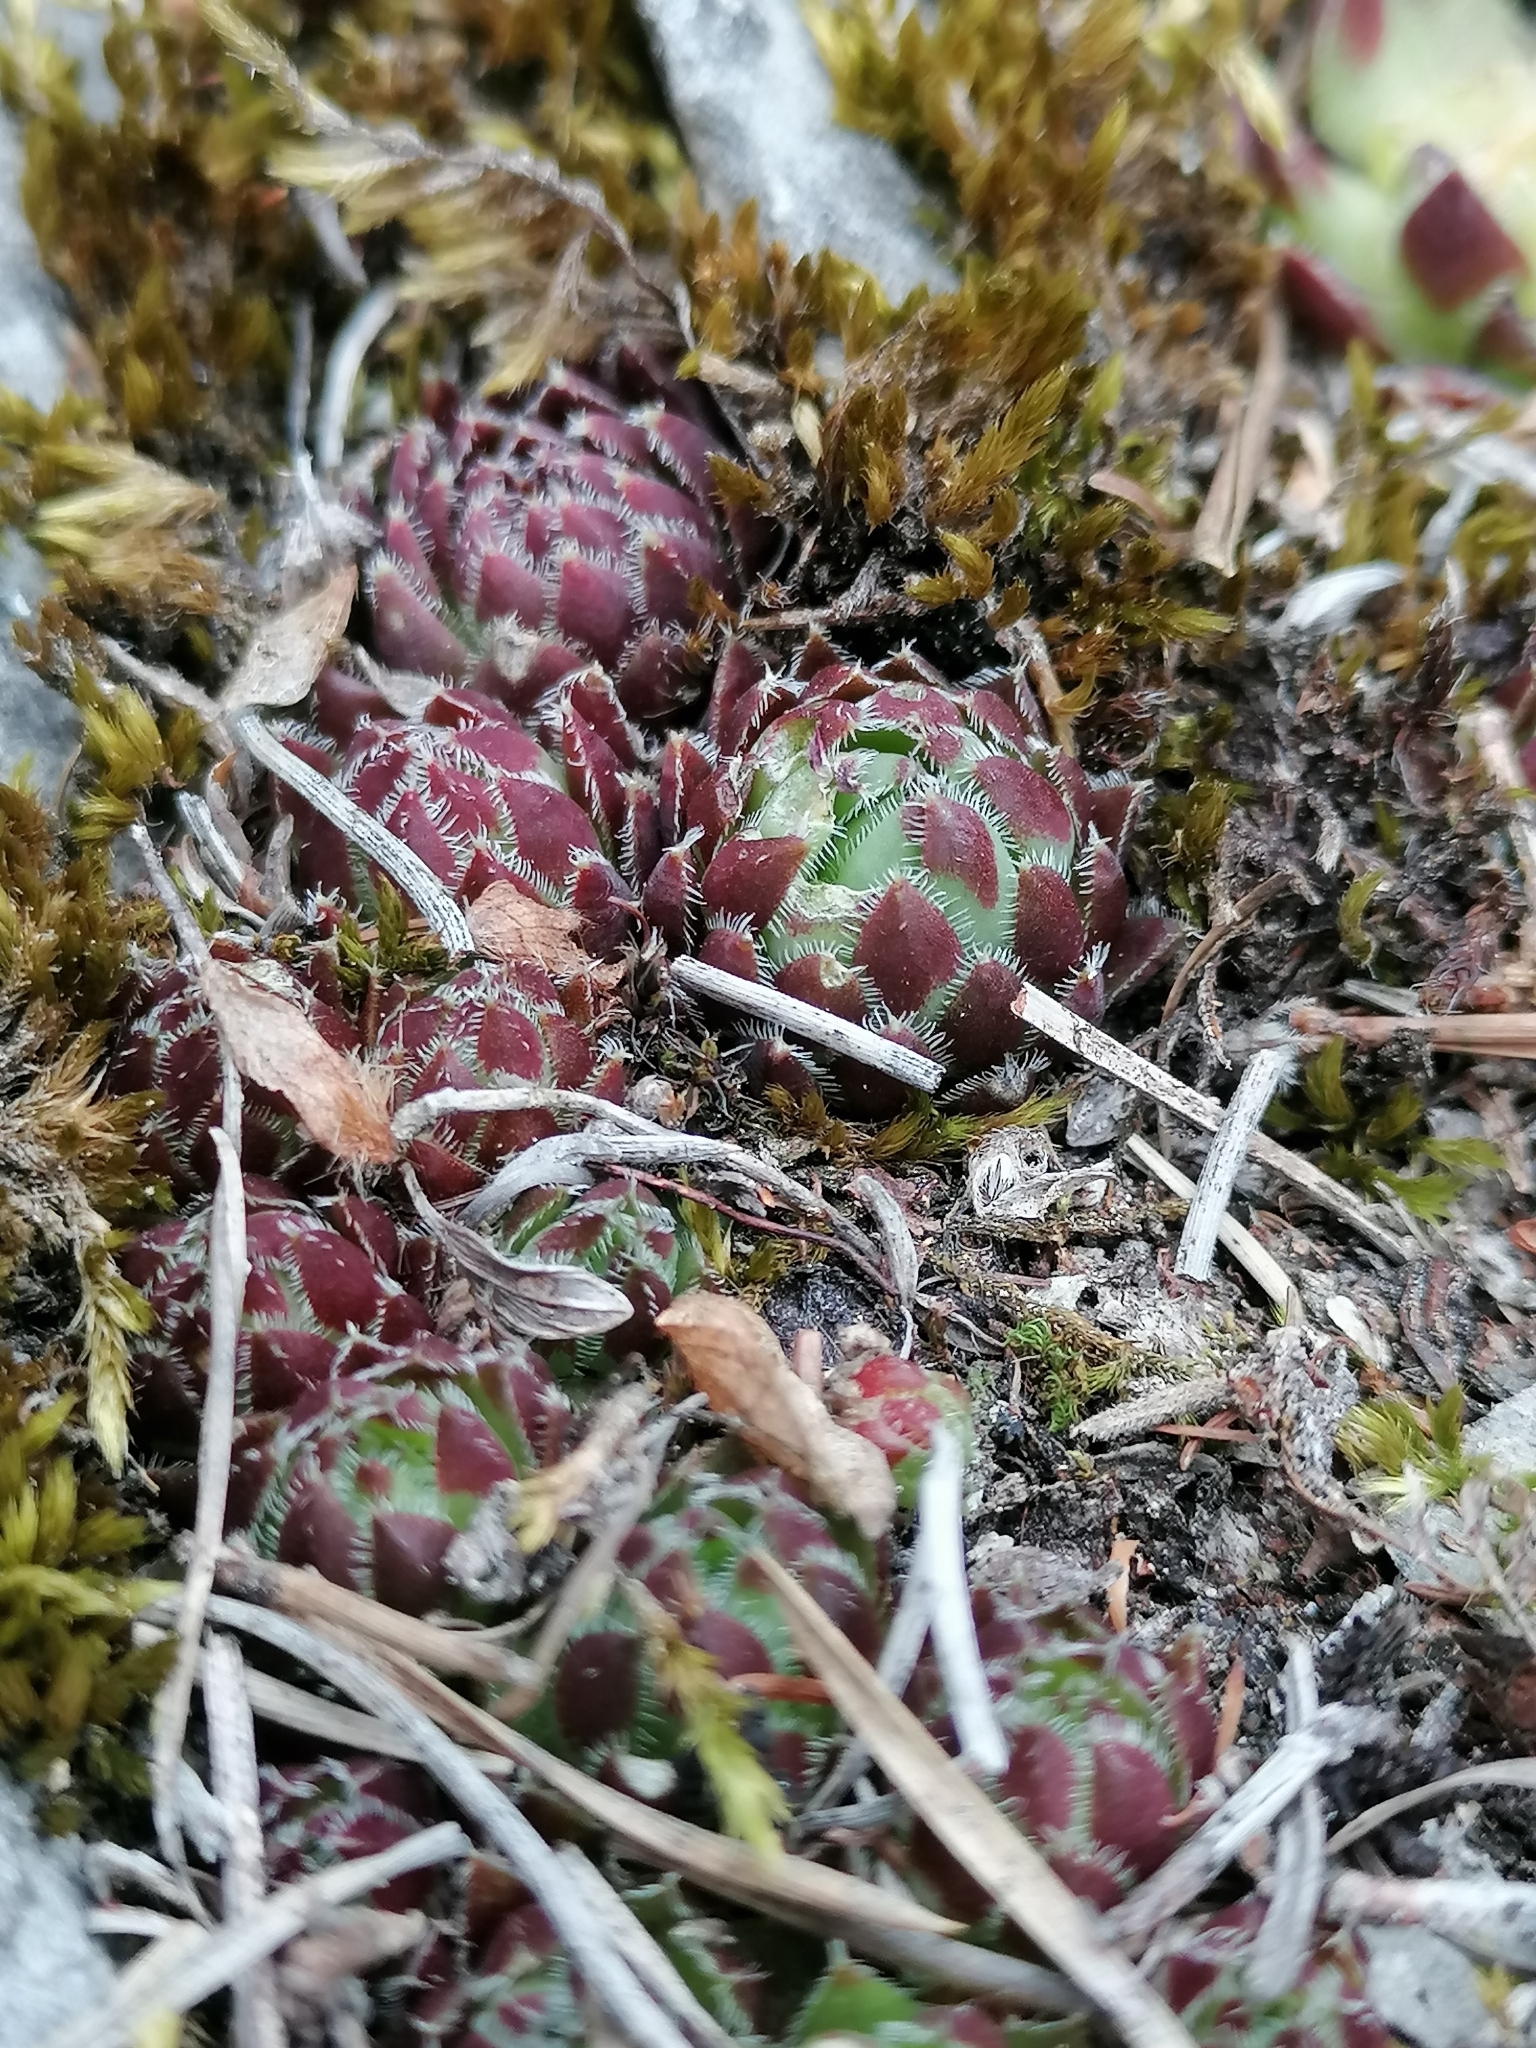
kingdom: Plantae
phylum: Tracheophyta
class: Magnoliopsida
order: Saxifragales
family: Crassulaceae
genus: Sempervivum
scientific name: Sempervivum globiferum
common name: Rolling hen-and-chicks
